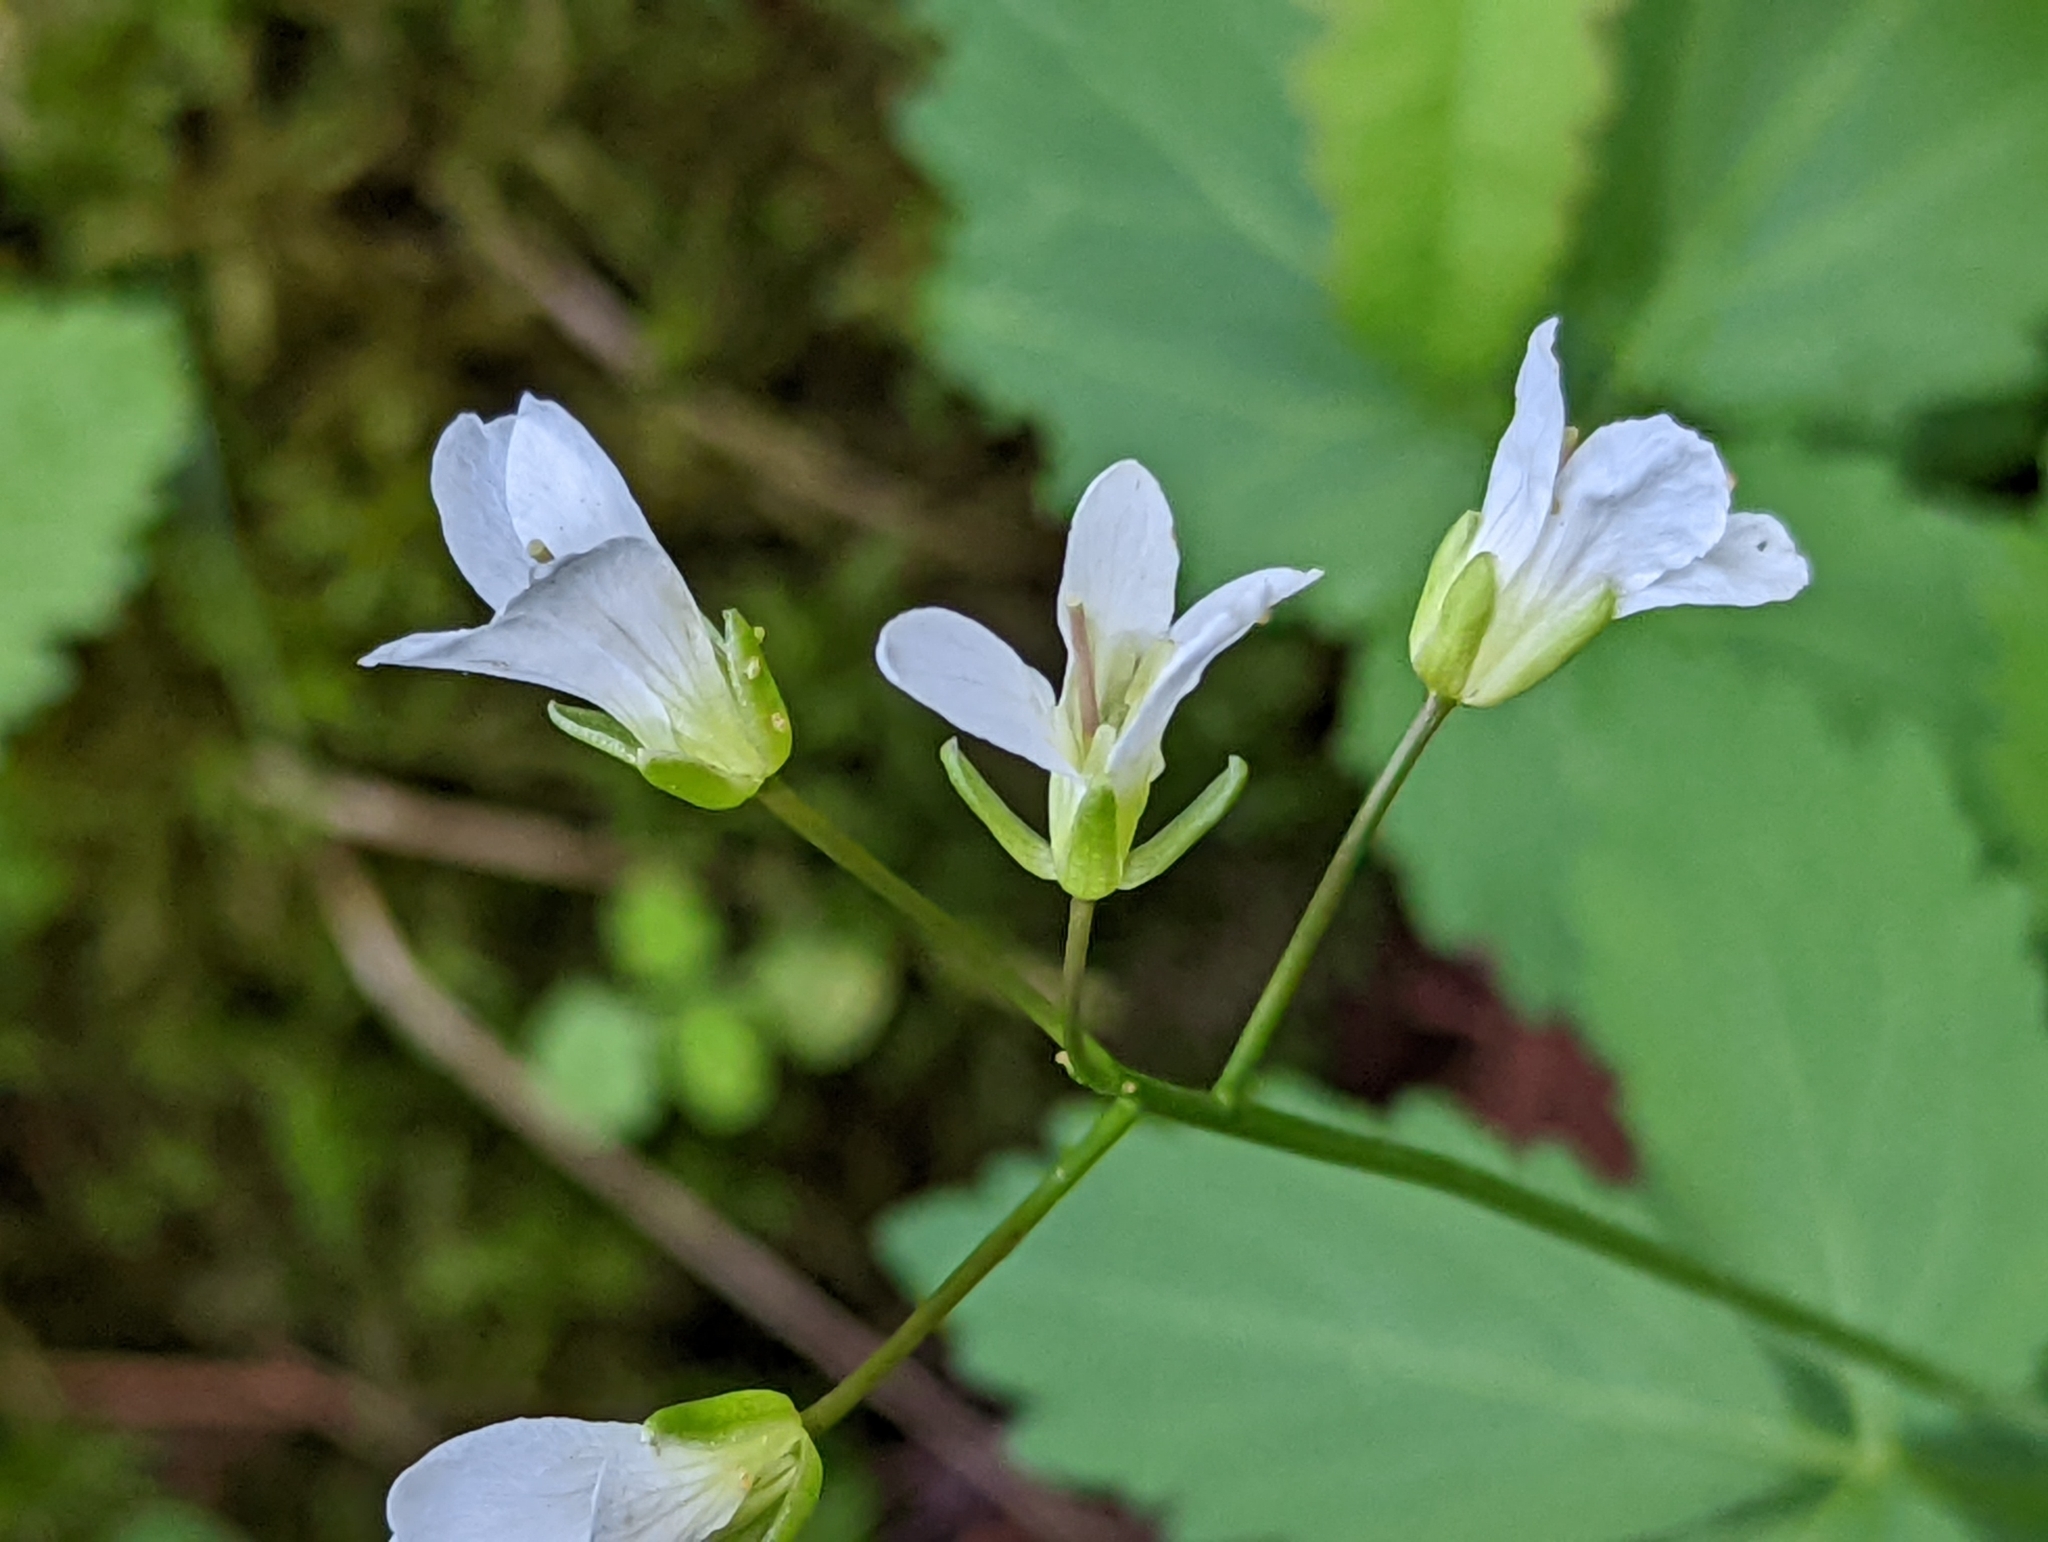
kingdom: Plantae
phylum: Tracheophyta
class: Magnoliopsida
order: Brassicales
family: Brassicaceae
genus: Cardamine
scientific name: Cardamine diphylla
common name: Broad-leaved toothwort
